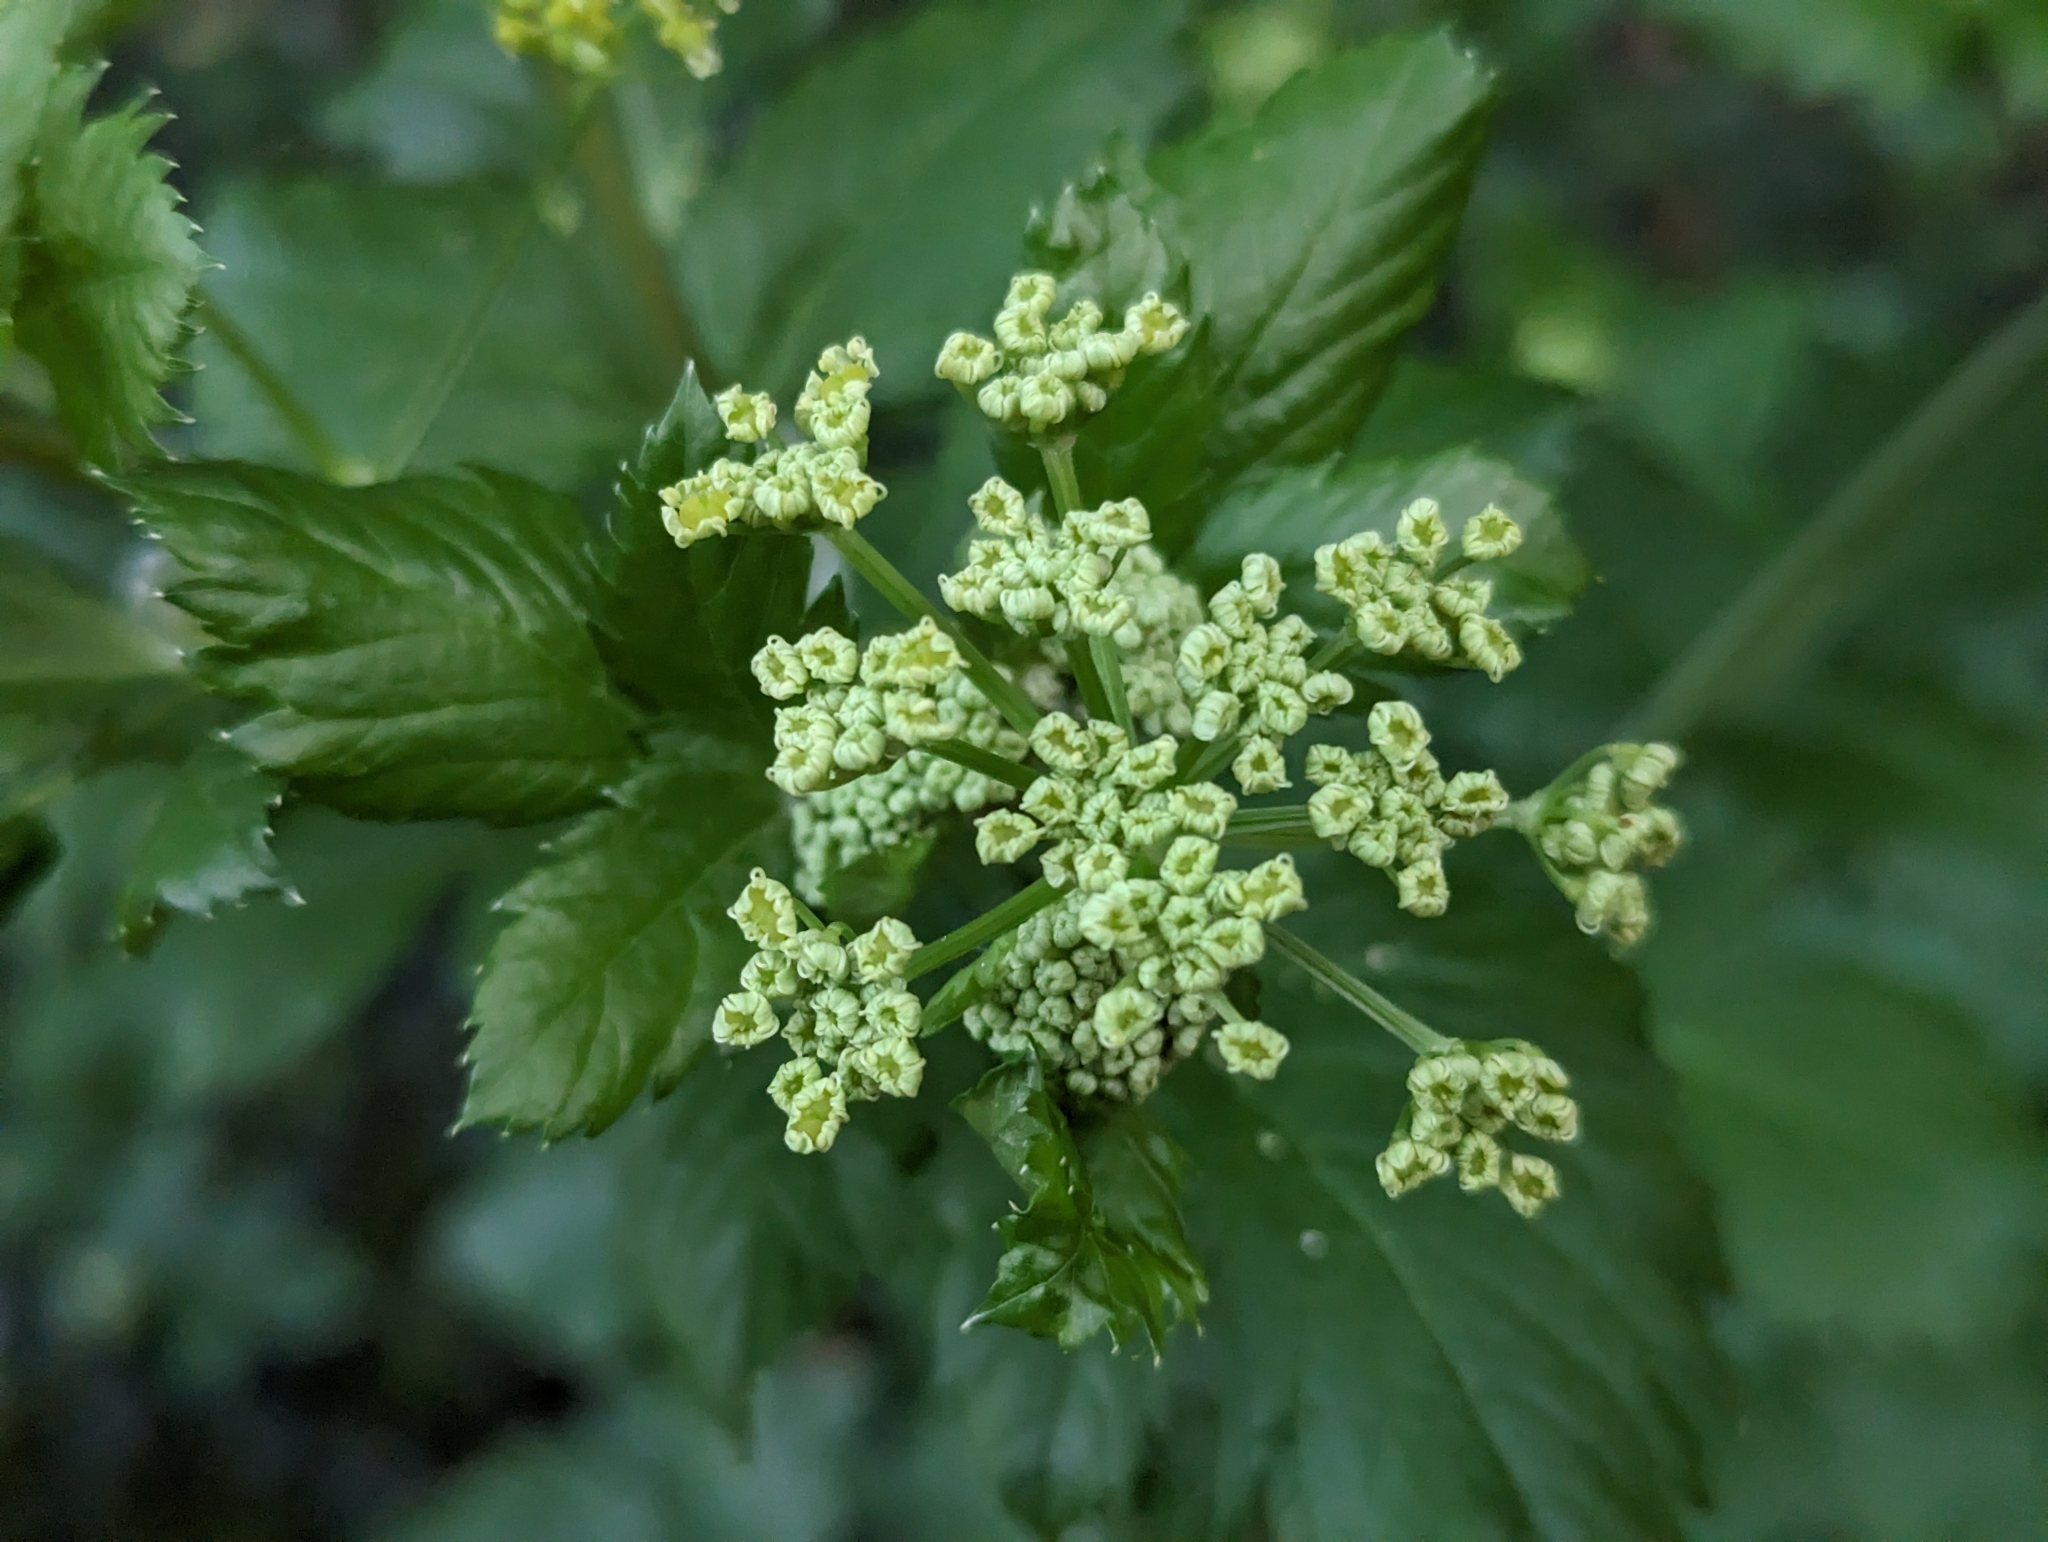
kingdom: Plantae
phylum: Tracheophyta
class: Magnoliopsida
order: Apiales
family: Apiaceae
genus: Smyrnium
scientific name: Smyrnium olusatrum
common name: Alexanders
